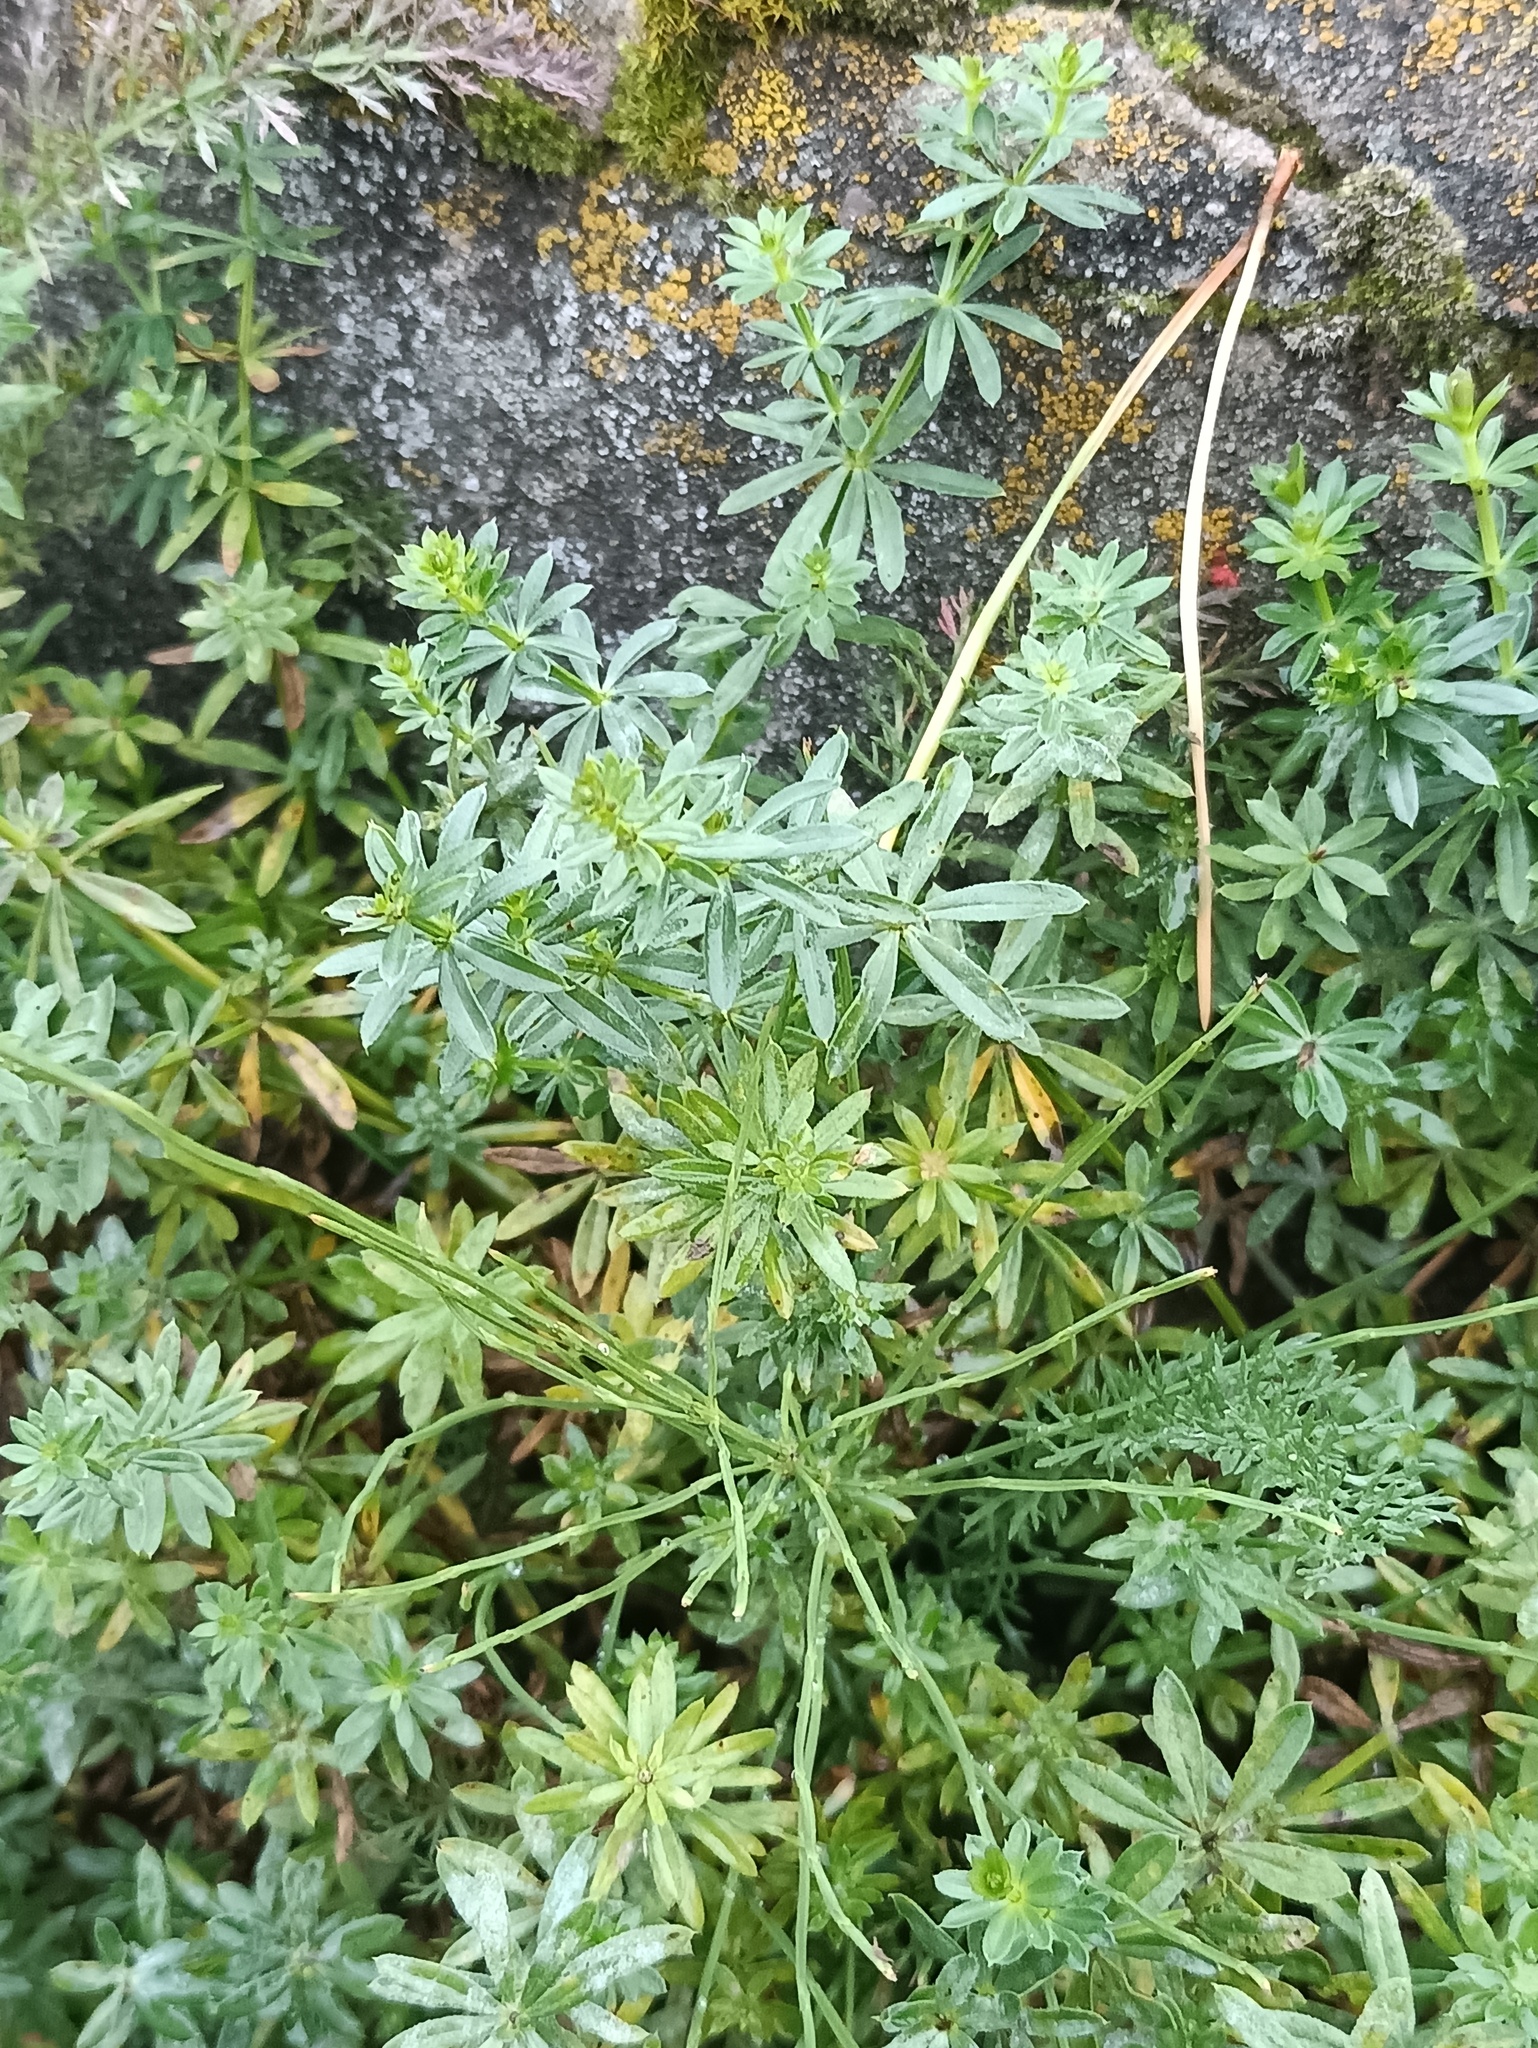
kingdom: Plantae
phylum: Tracheophyta
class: Magnoliopsida
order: Gentianales
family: Rubiaceae
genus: Galium
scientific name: Galium mollugo
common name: Hedge bedstraw
